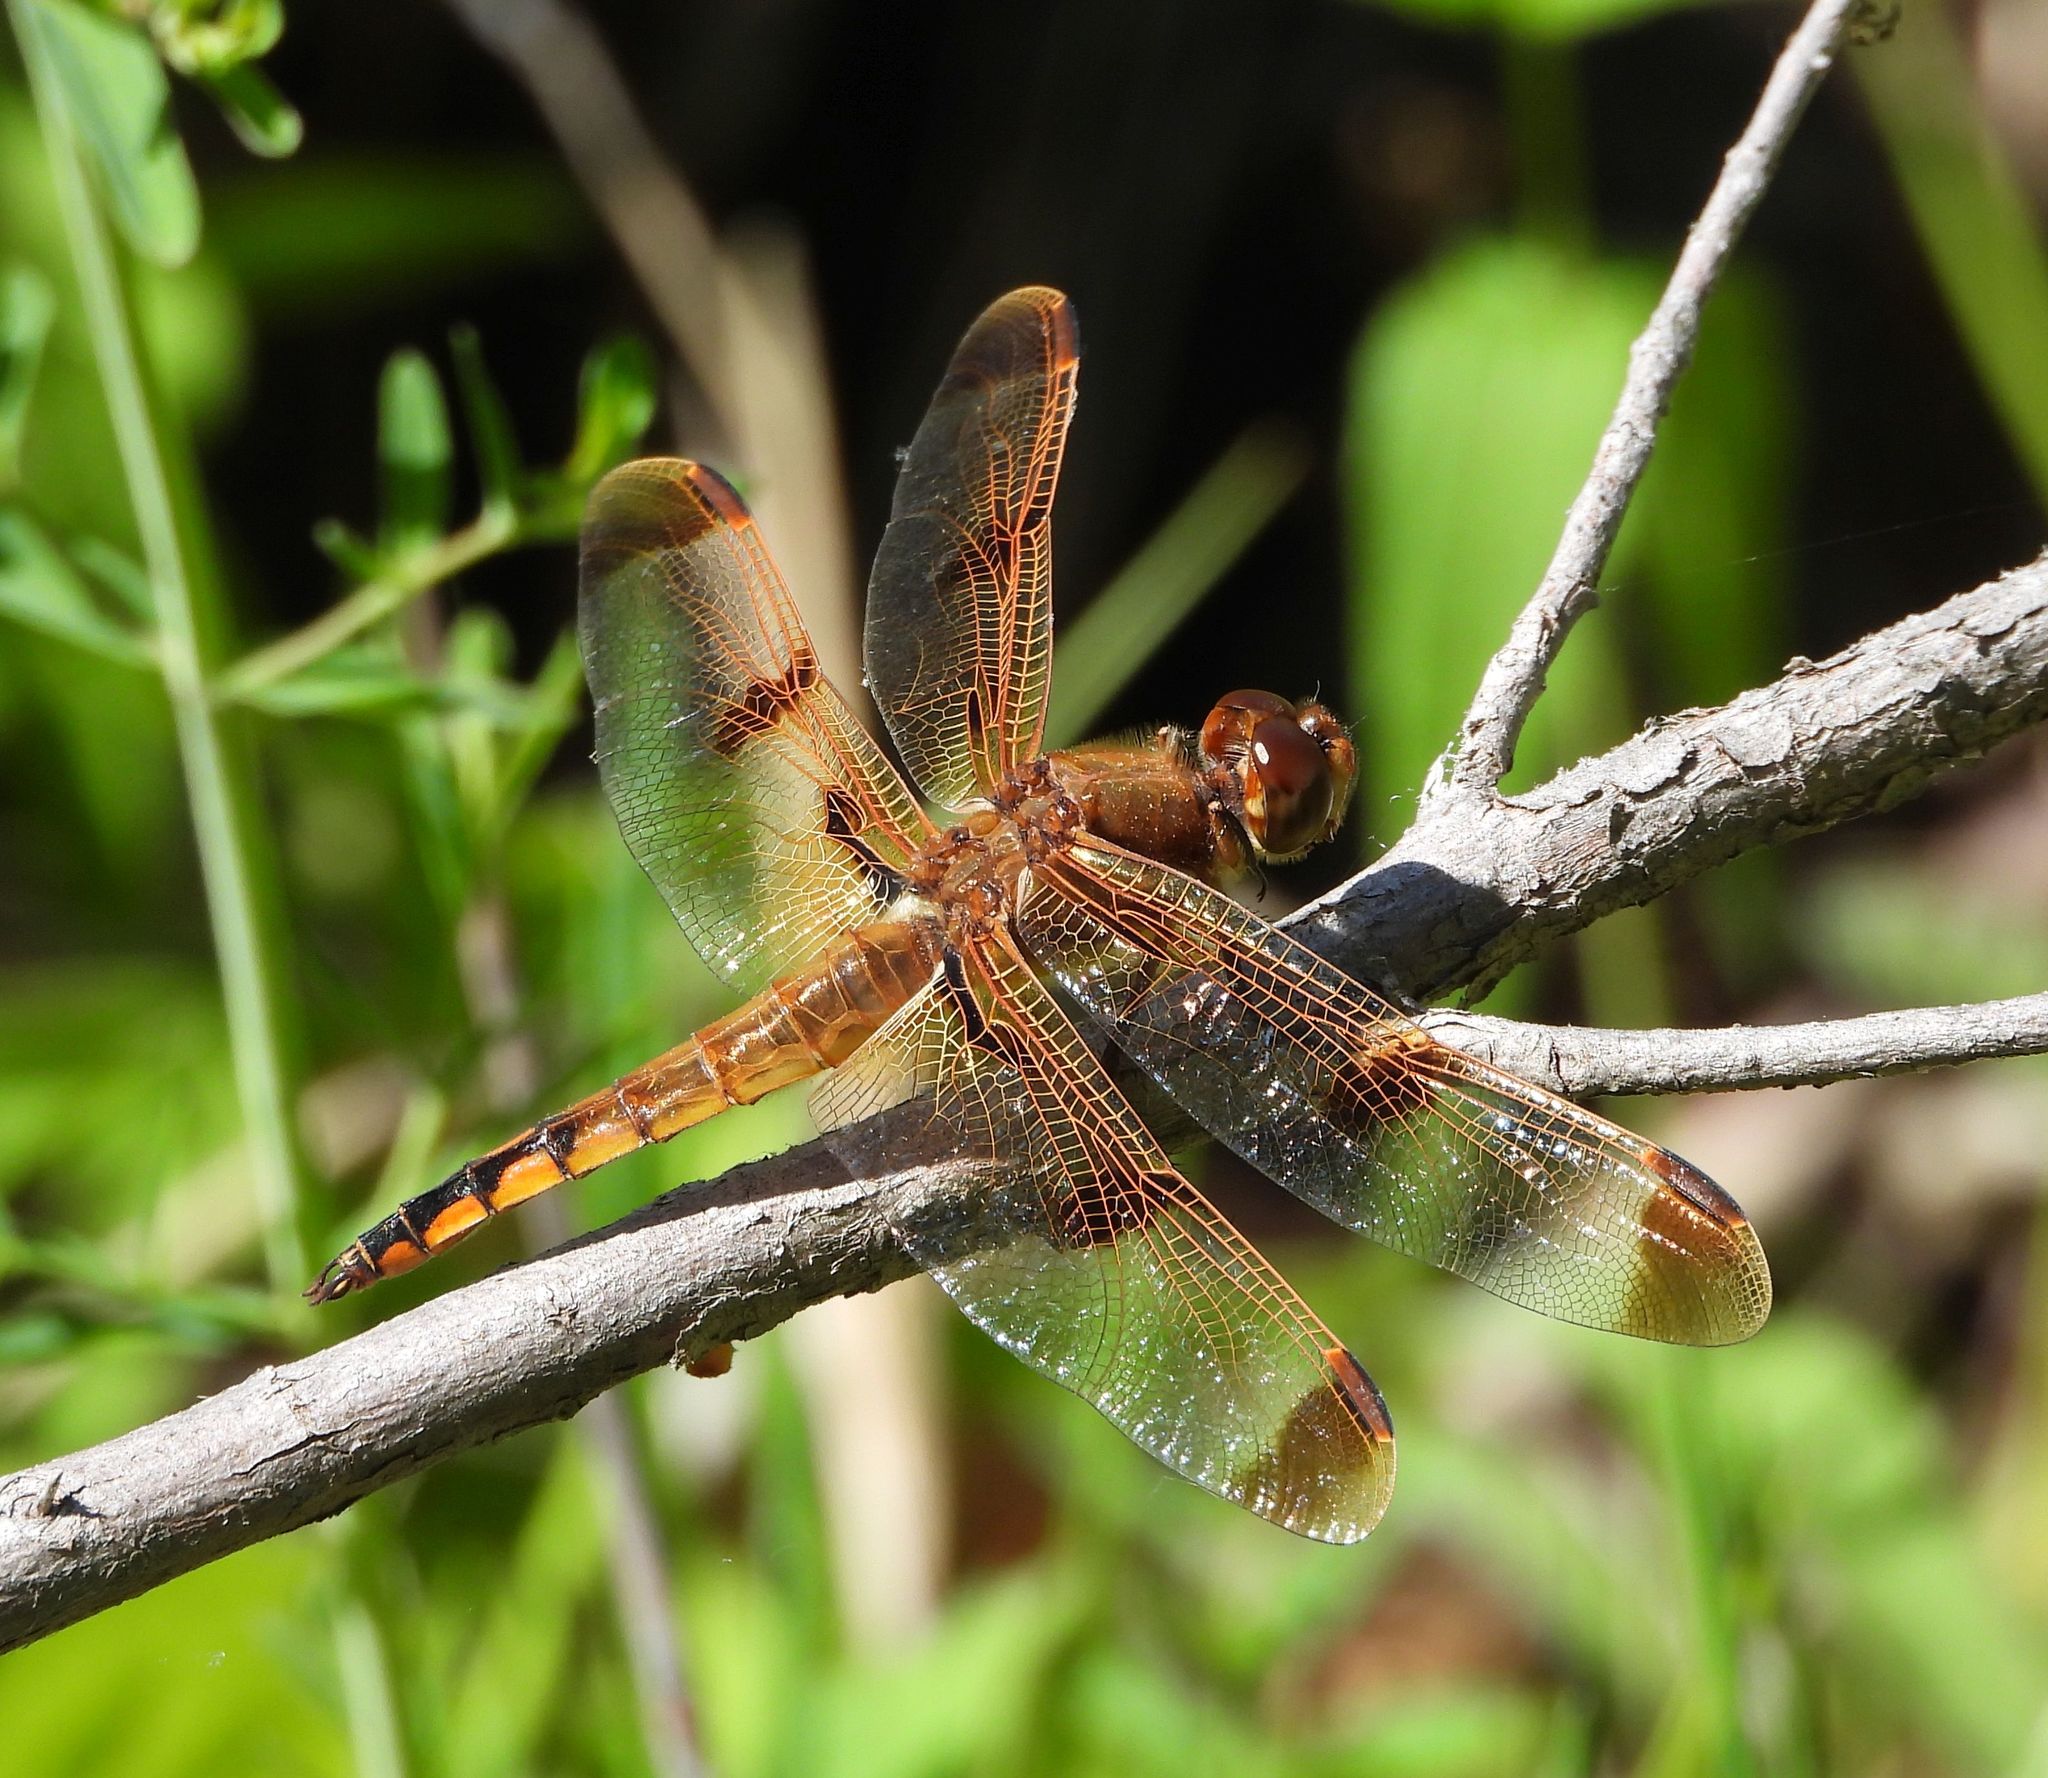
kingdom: Animalia
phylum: Arthropoda
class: Insecta
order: Odonata
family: Libellulidae
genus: Libellula
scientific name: Libellula semifasciata
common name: Painted skimmer
